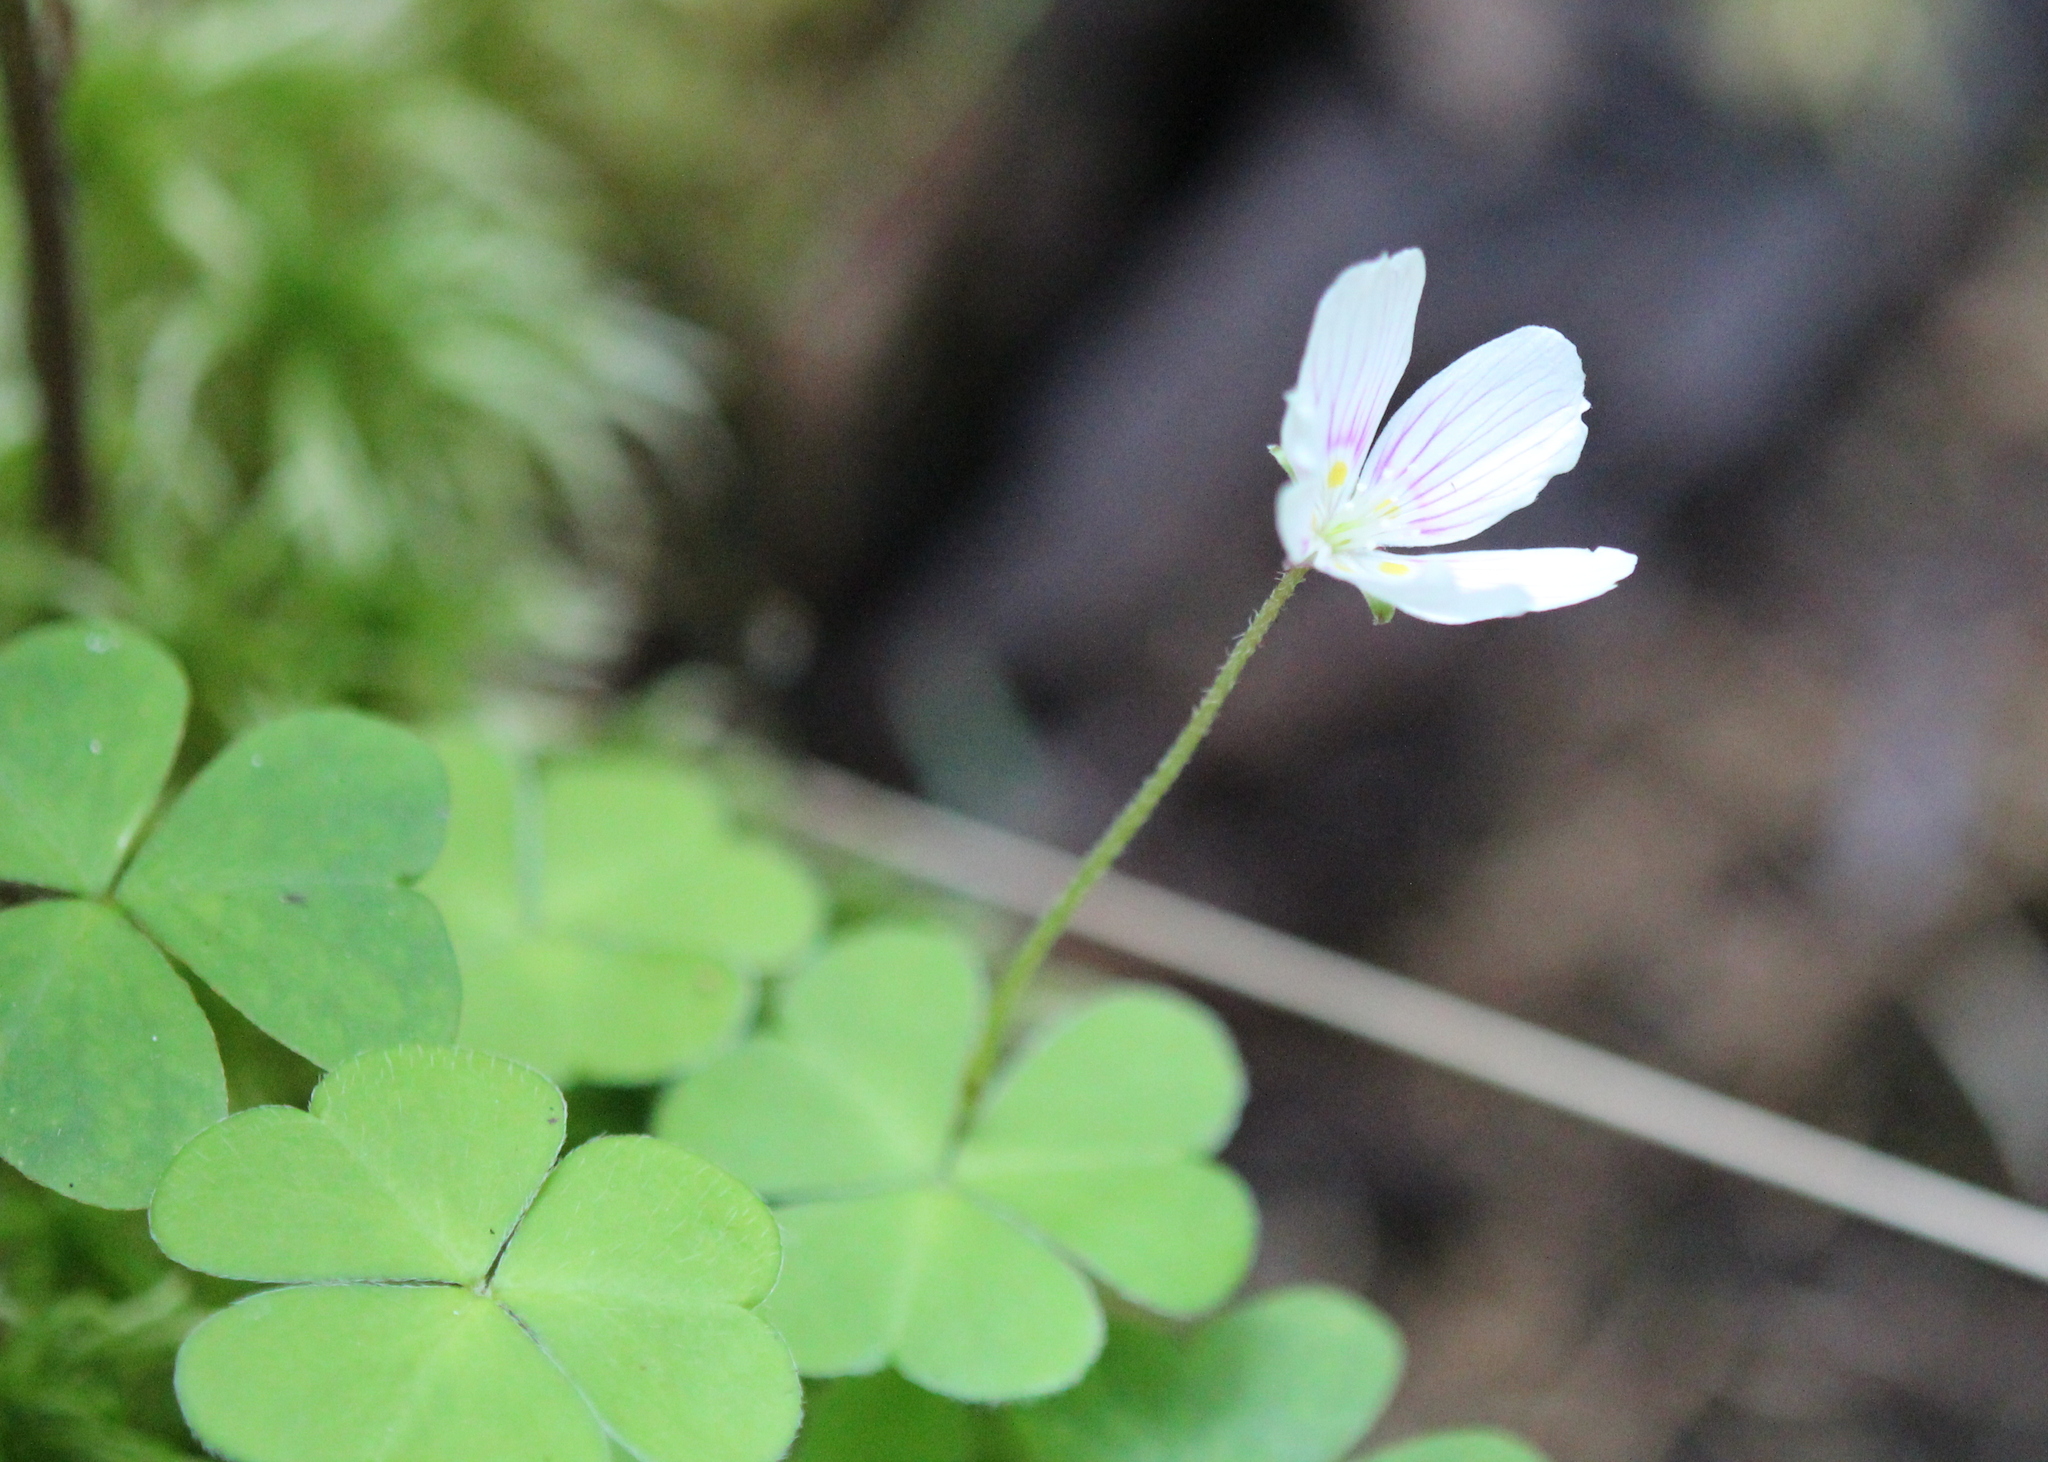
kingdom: Plantae
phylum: Tracheophyta
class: Magnoliopsida
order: Oxalidales
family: Oxalidaceae
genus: Oxalis
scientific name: Oxalis montana
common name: American wood-sorrel
